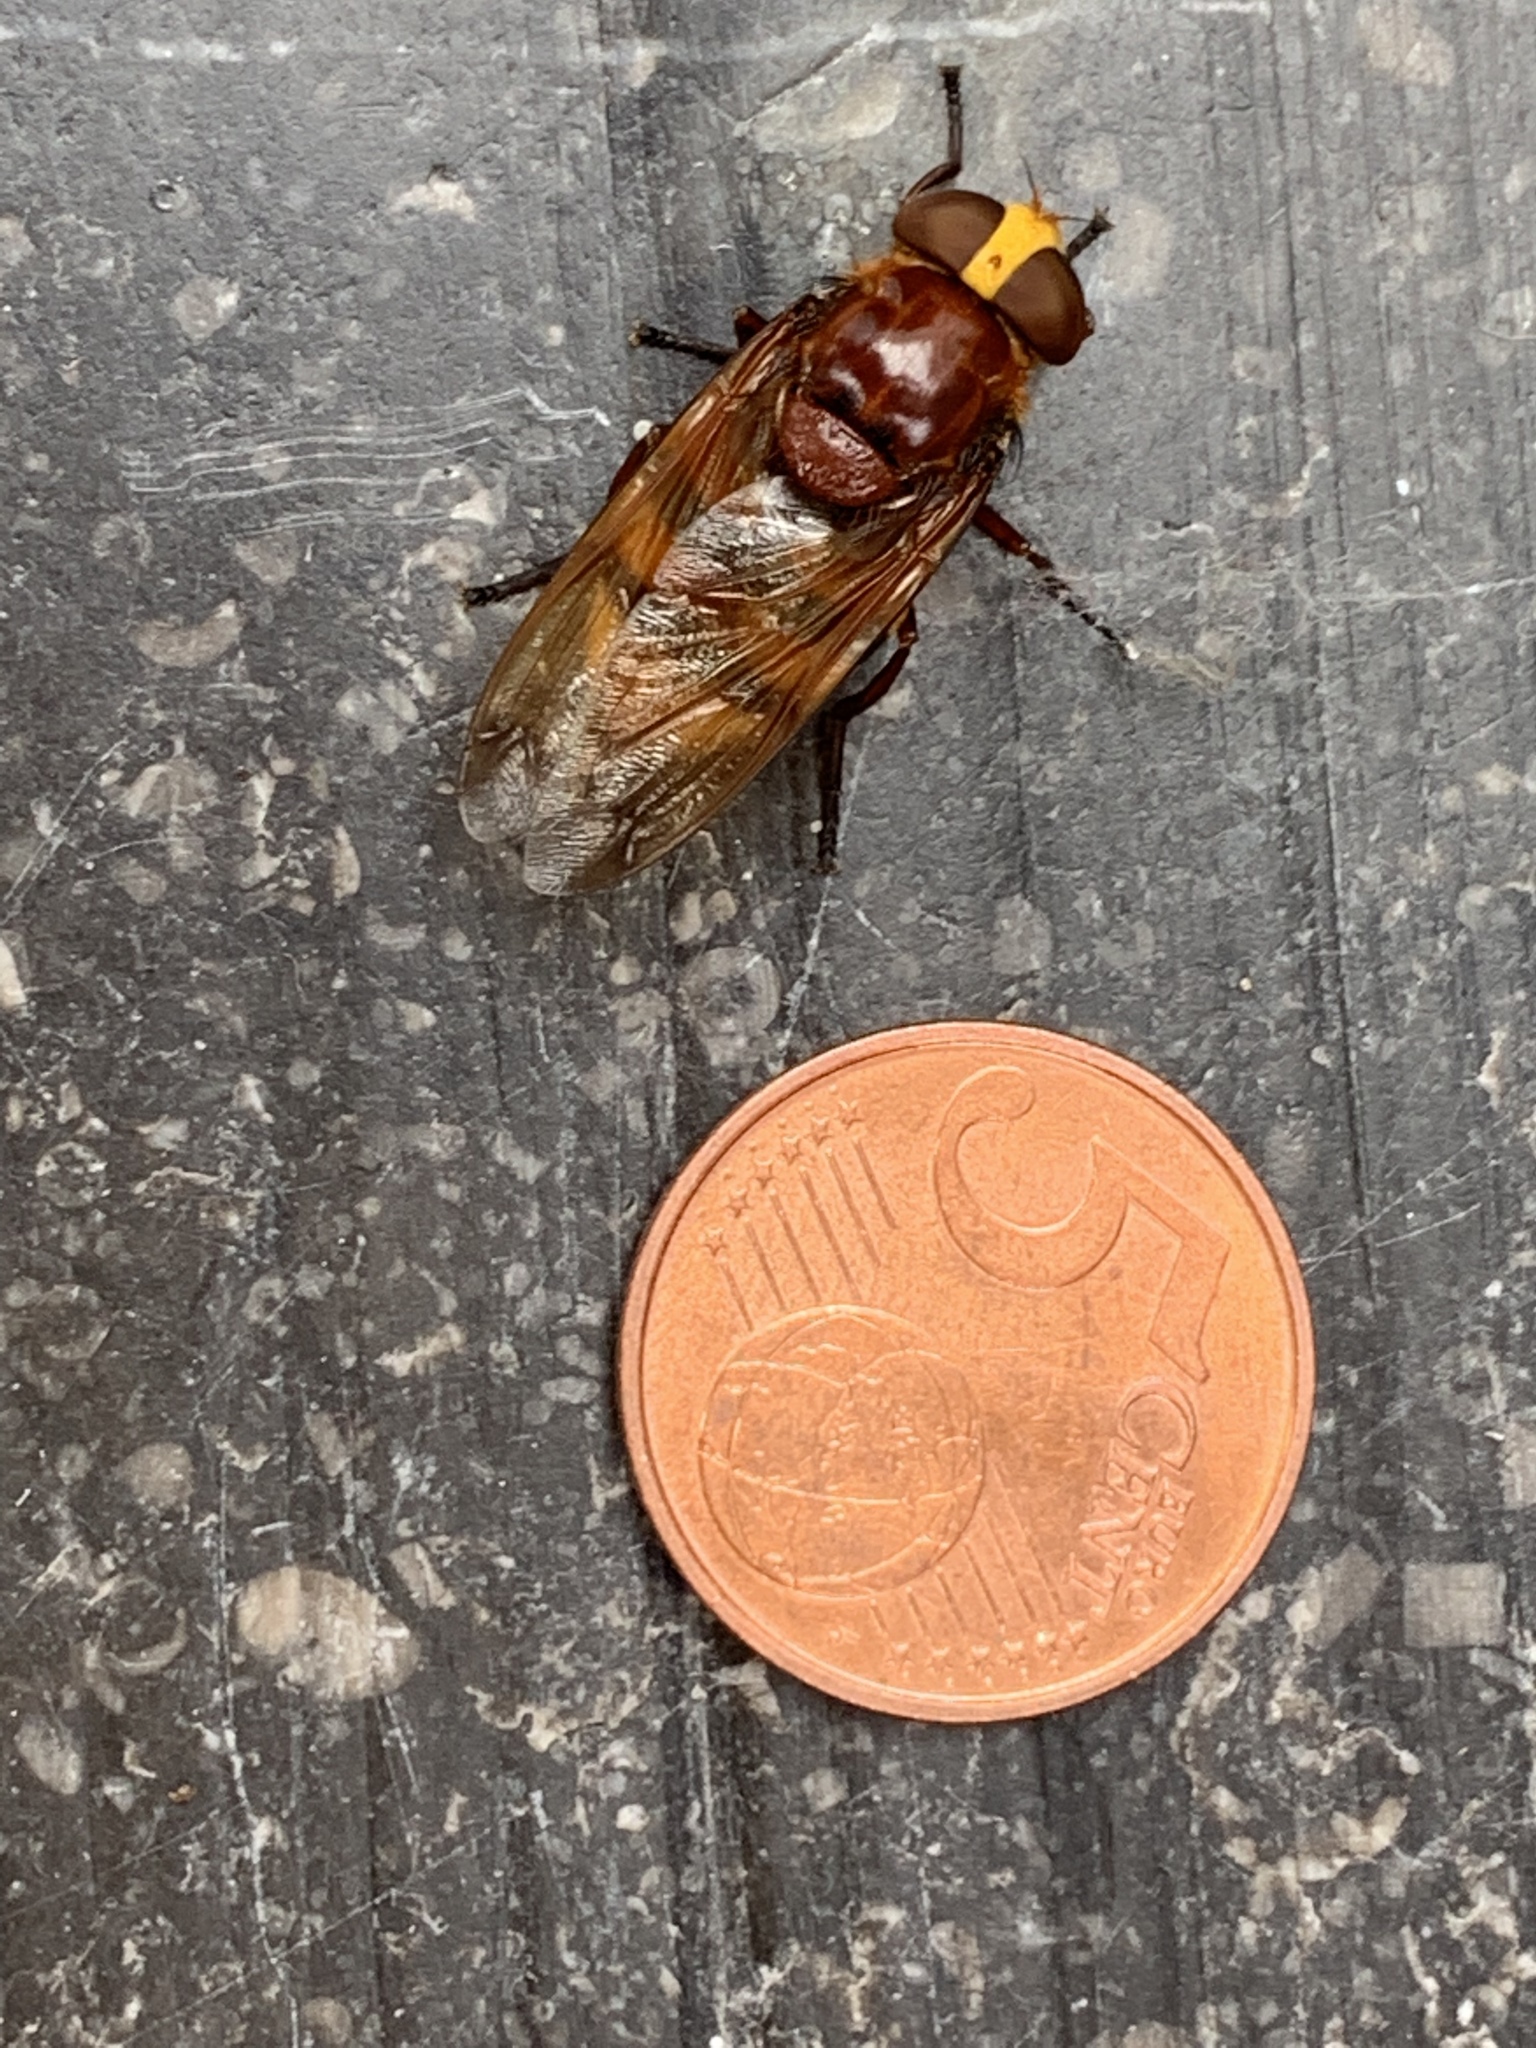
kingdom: Animalia
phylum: Arthropoda
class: Insecta
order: Diptera
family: Syrphidae
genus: Volucella
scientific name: Volucella zonaria
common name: Hornet hoverfly
